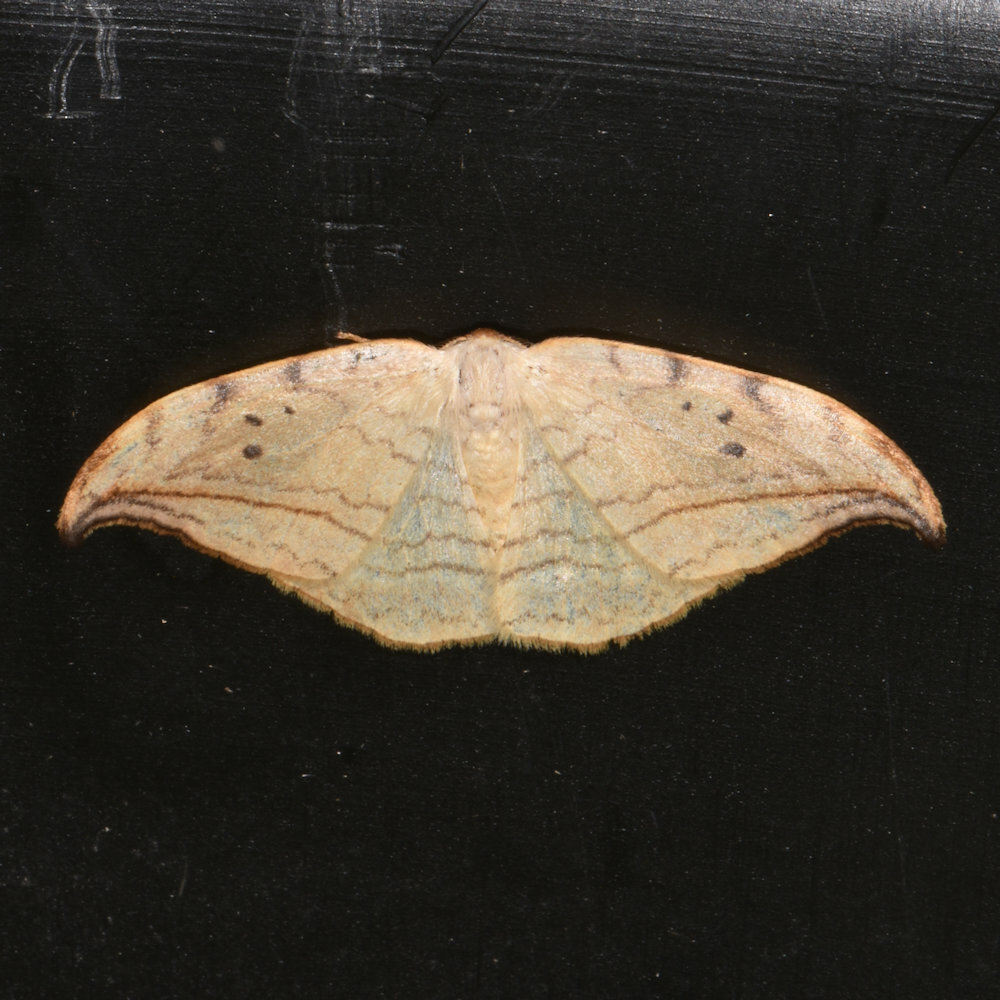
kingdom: Animalia
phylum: Arthropoda
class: Insecta
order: Lepidoptera
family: Drepanidae
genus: Drepana
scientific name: Drepana arcuata
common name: Arched hooktip moth
